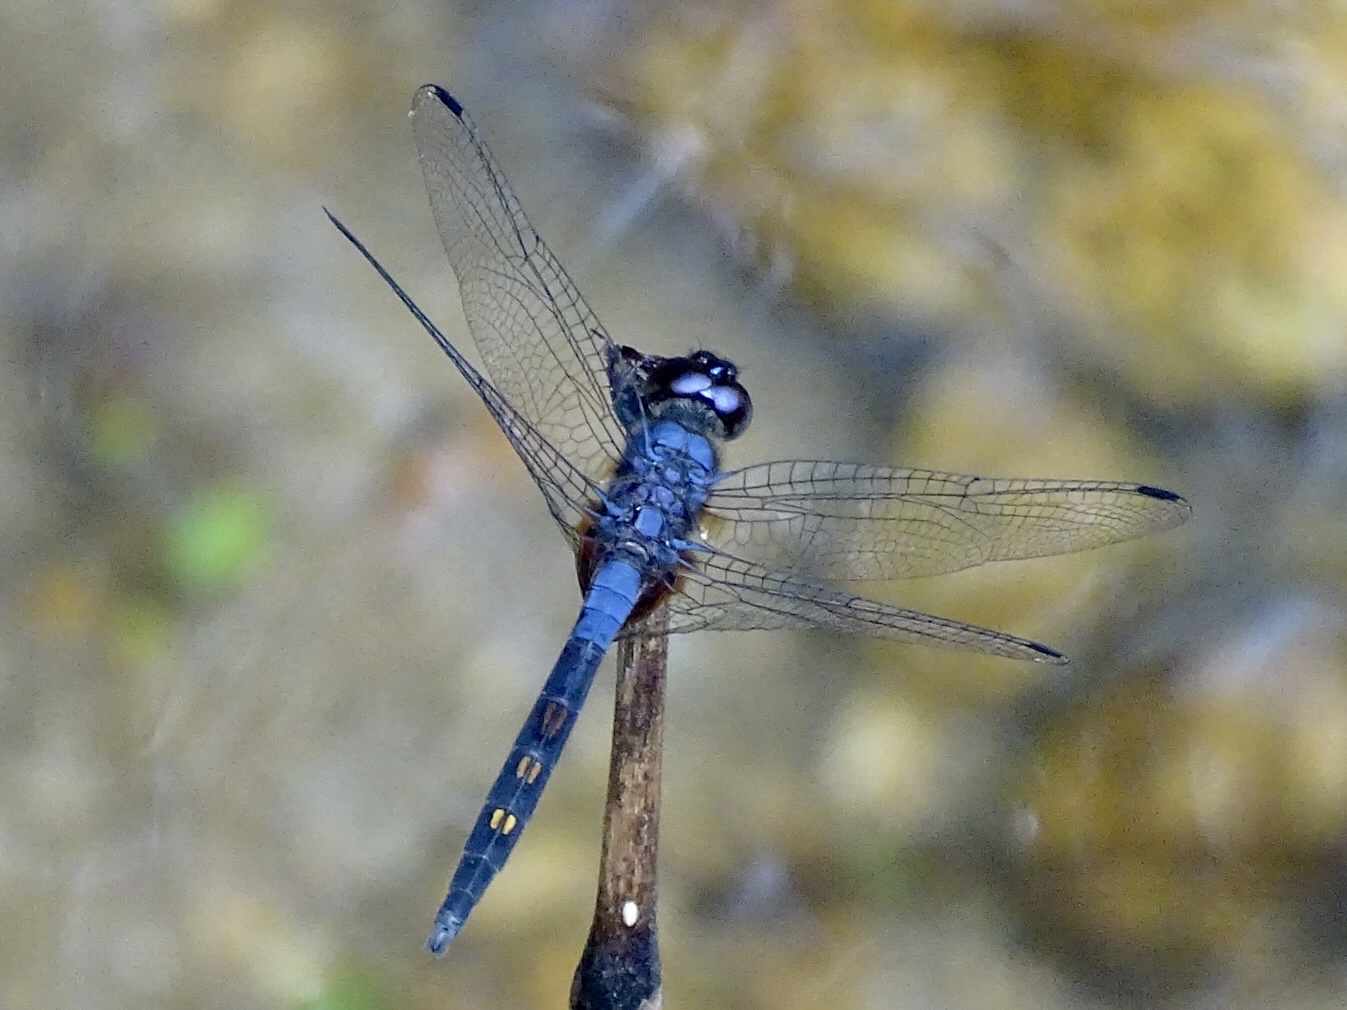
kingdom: Animalia
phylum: Arthropoda
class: Insecta
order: Odonata
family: Libellulidae
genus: Trithemis
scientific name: Trithemis festiva
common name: Indigo dropwing
